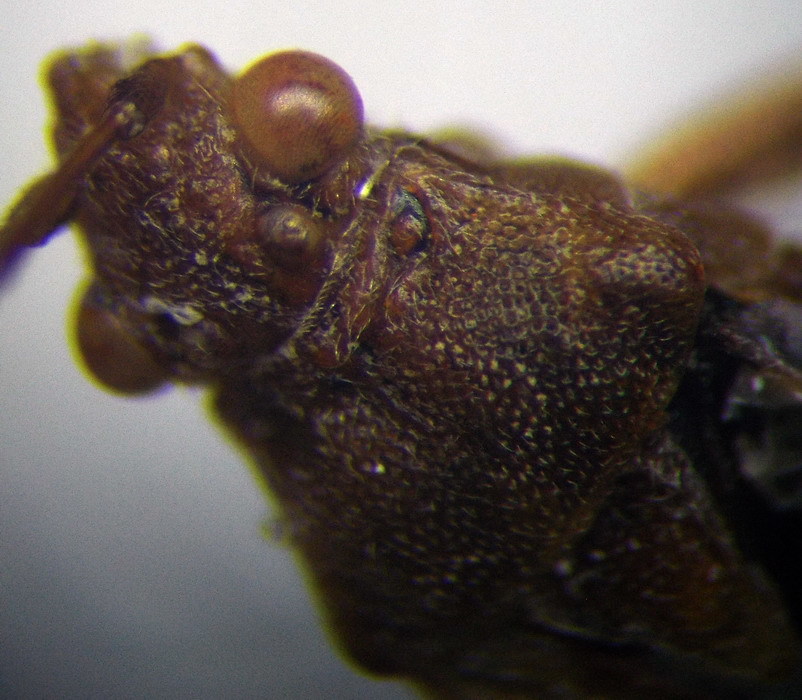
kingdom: Animalia
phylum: Arthropoda
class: Insecta
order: Hemiptera
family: Rhopalidae
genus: Stictopleurus
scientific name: Stictopleurus subtomentosus
